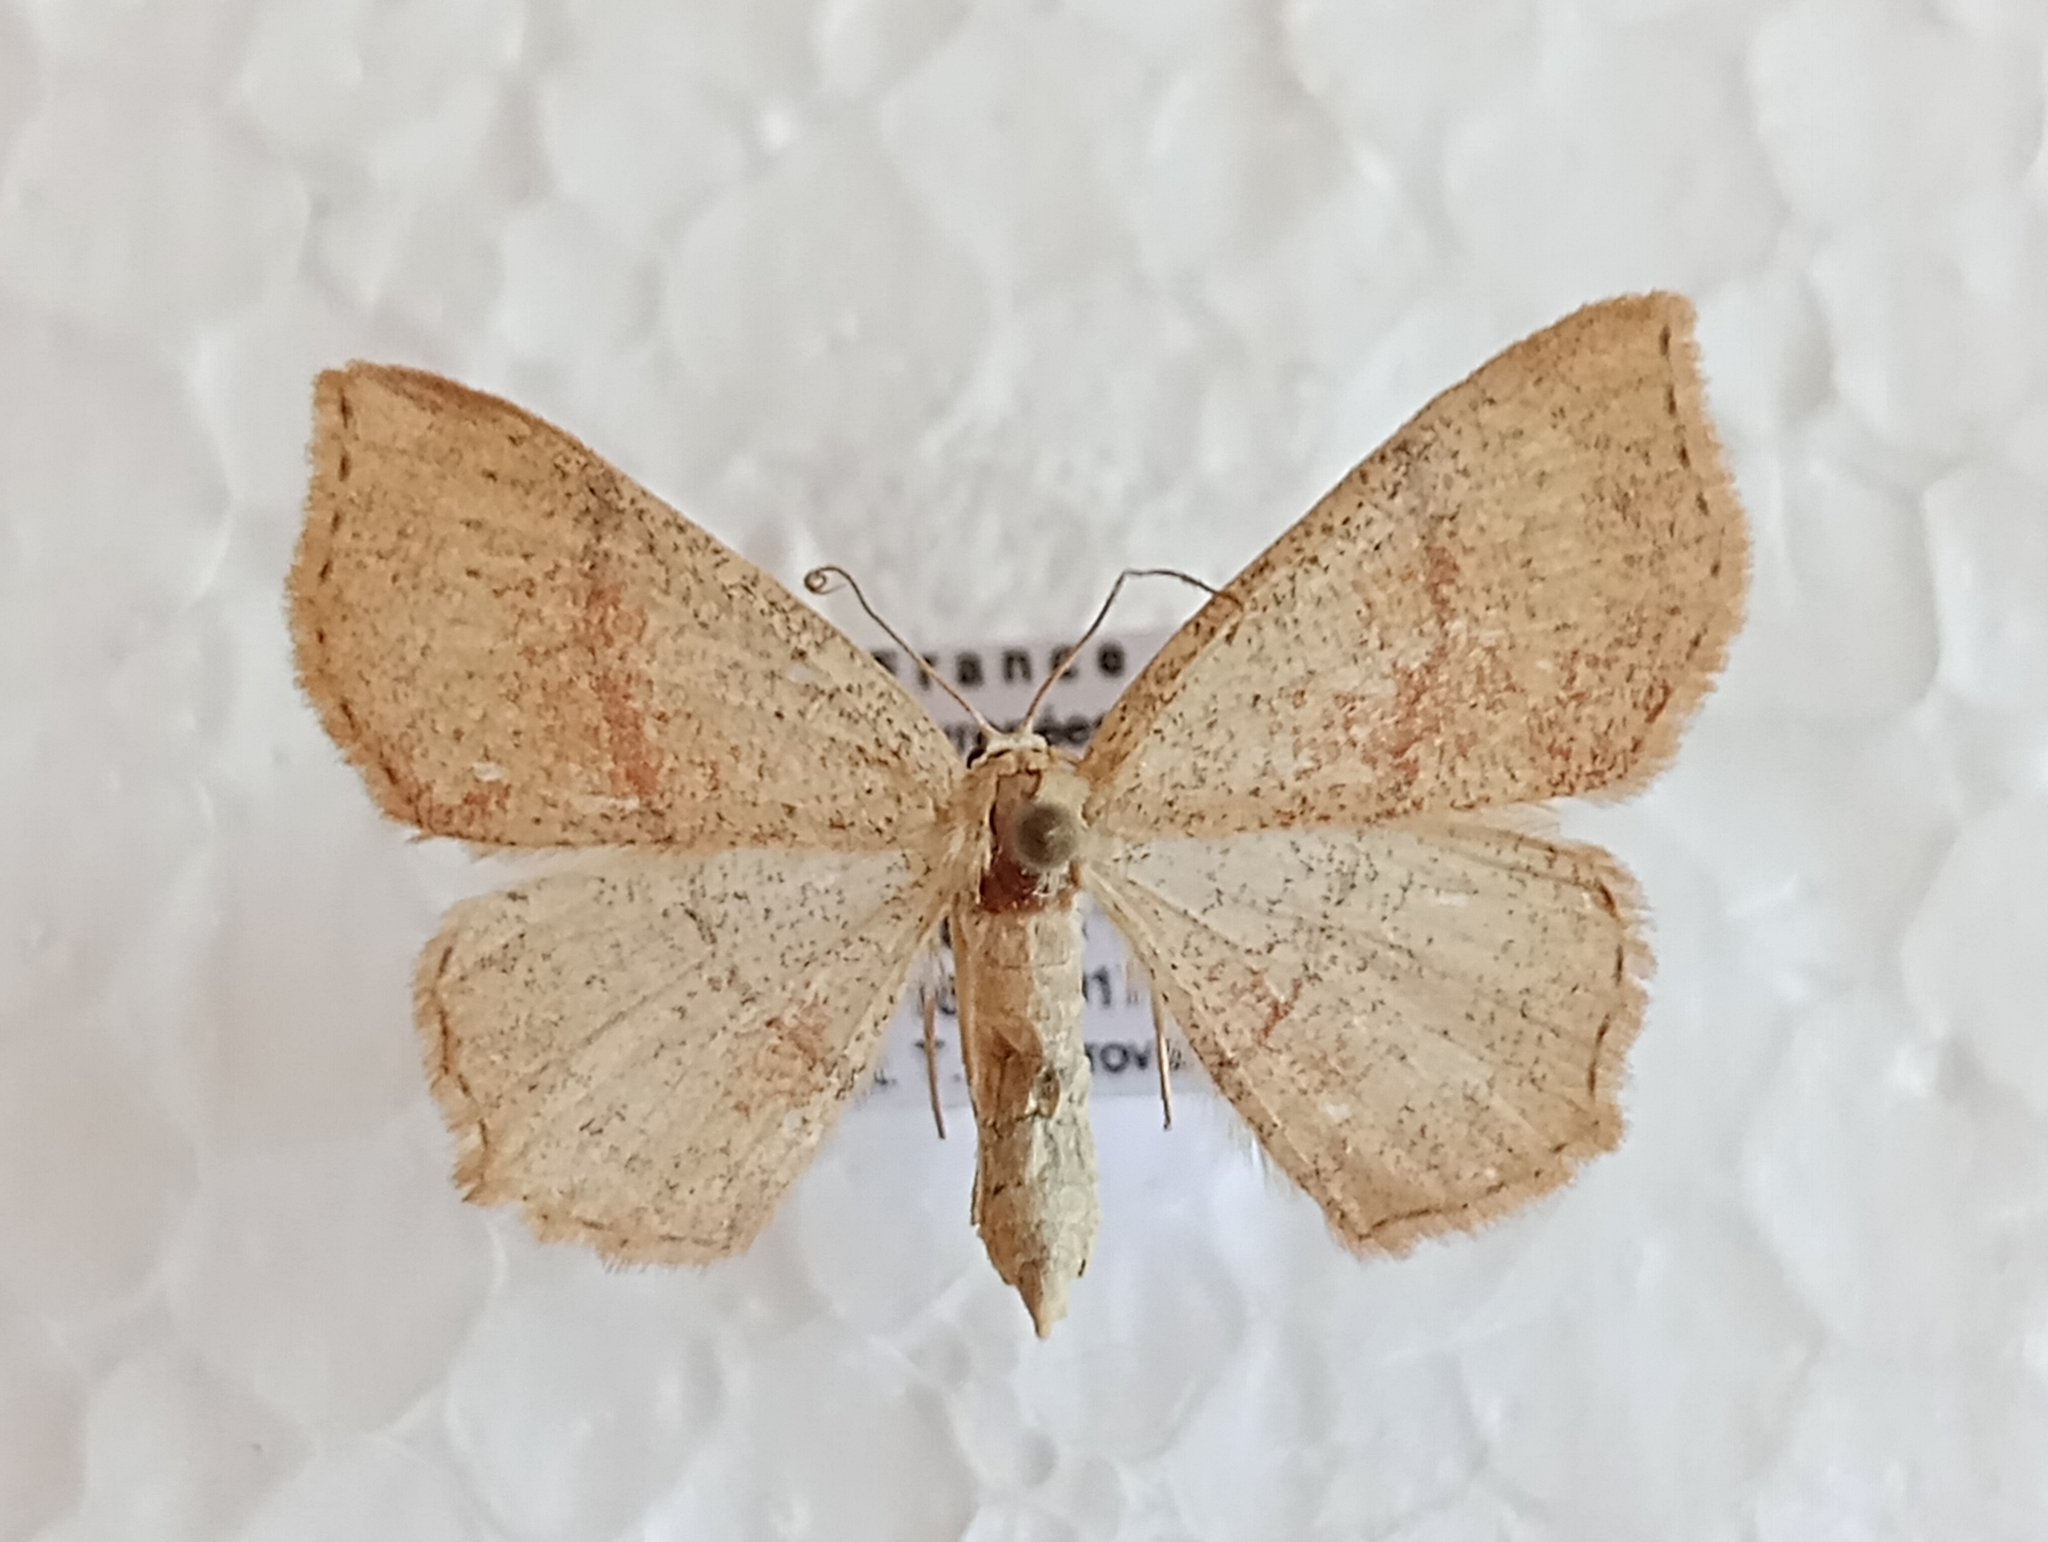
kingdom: Animalia
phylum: Arthropoda
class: Insecta
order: Lepidoptera
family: Geometridae
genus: Cyclophora
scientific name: Cyclophora punctaria
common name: Maiden's blush
